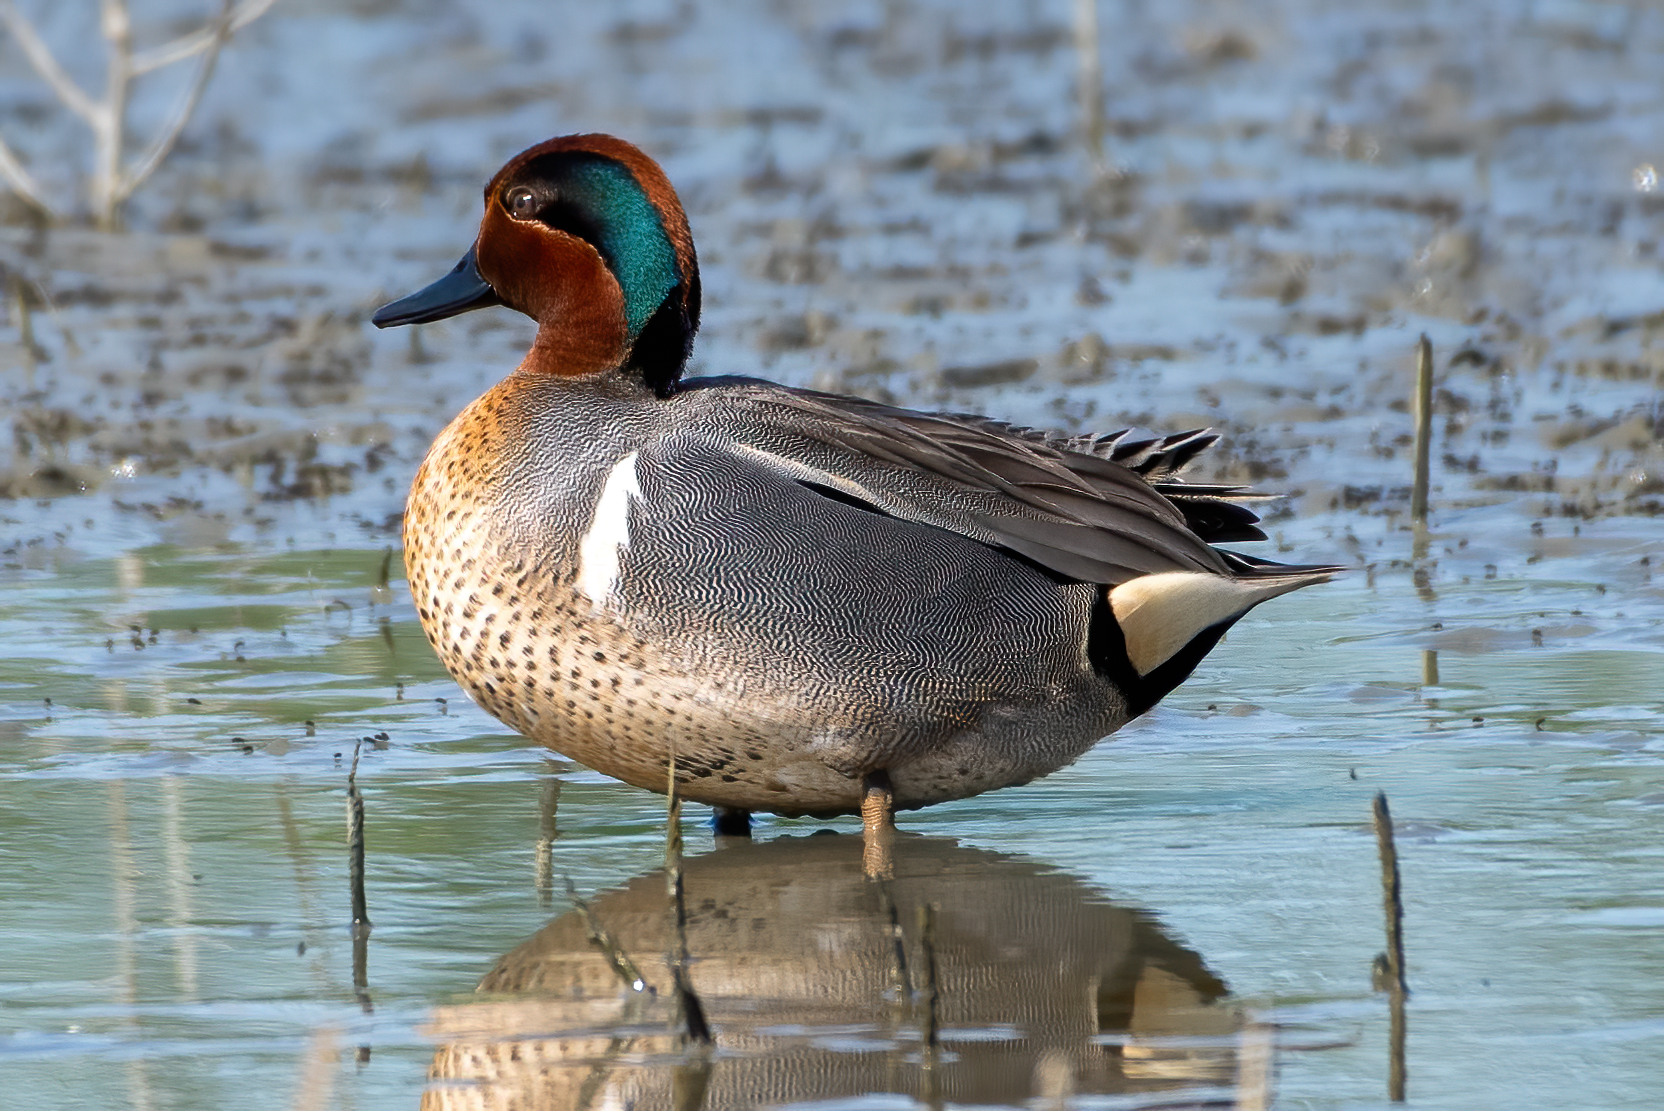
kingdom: Animalia
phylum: Chordata
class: Aves
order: Anseriformes
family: Anatidae
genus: Anas
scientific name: Anas crecca
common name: Eurasian teal
